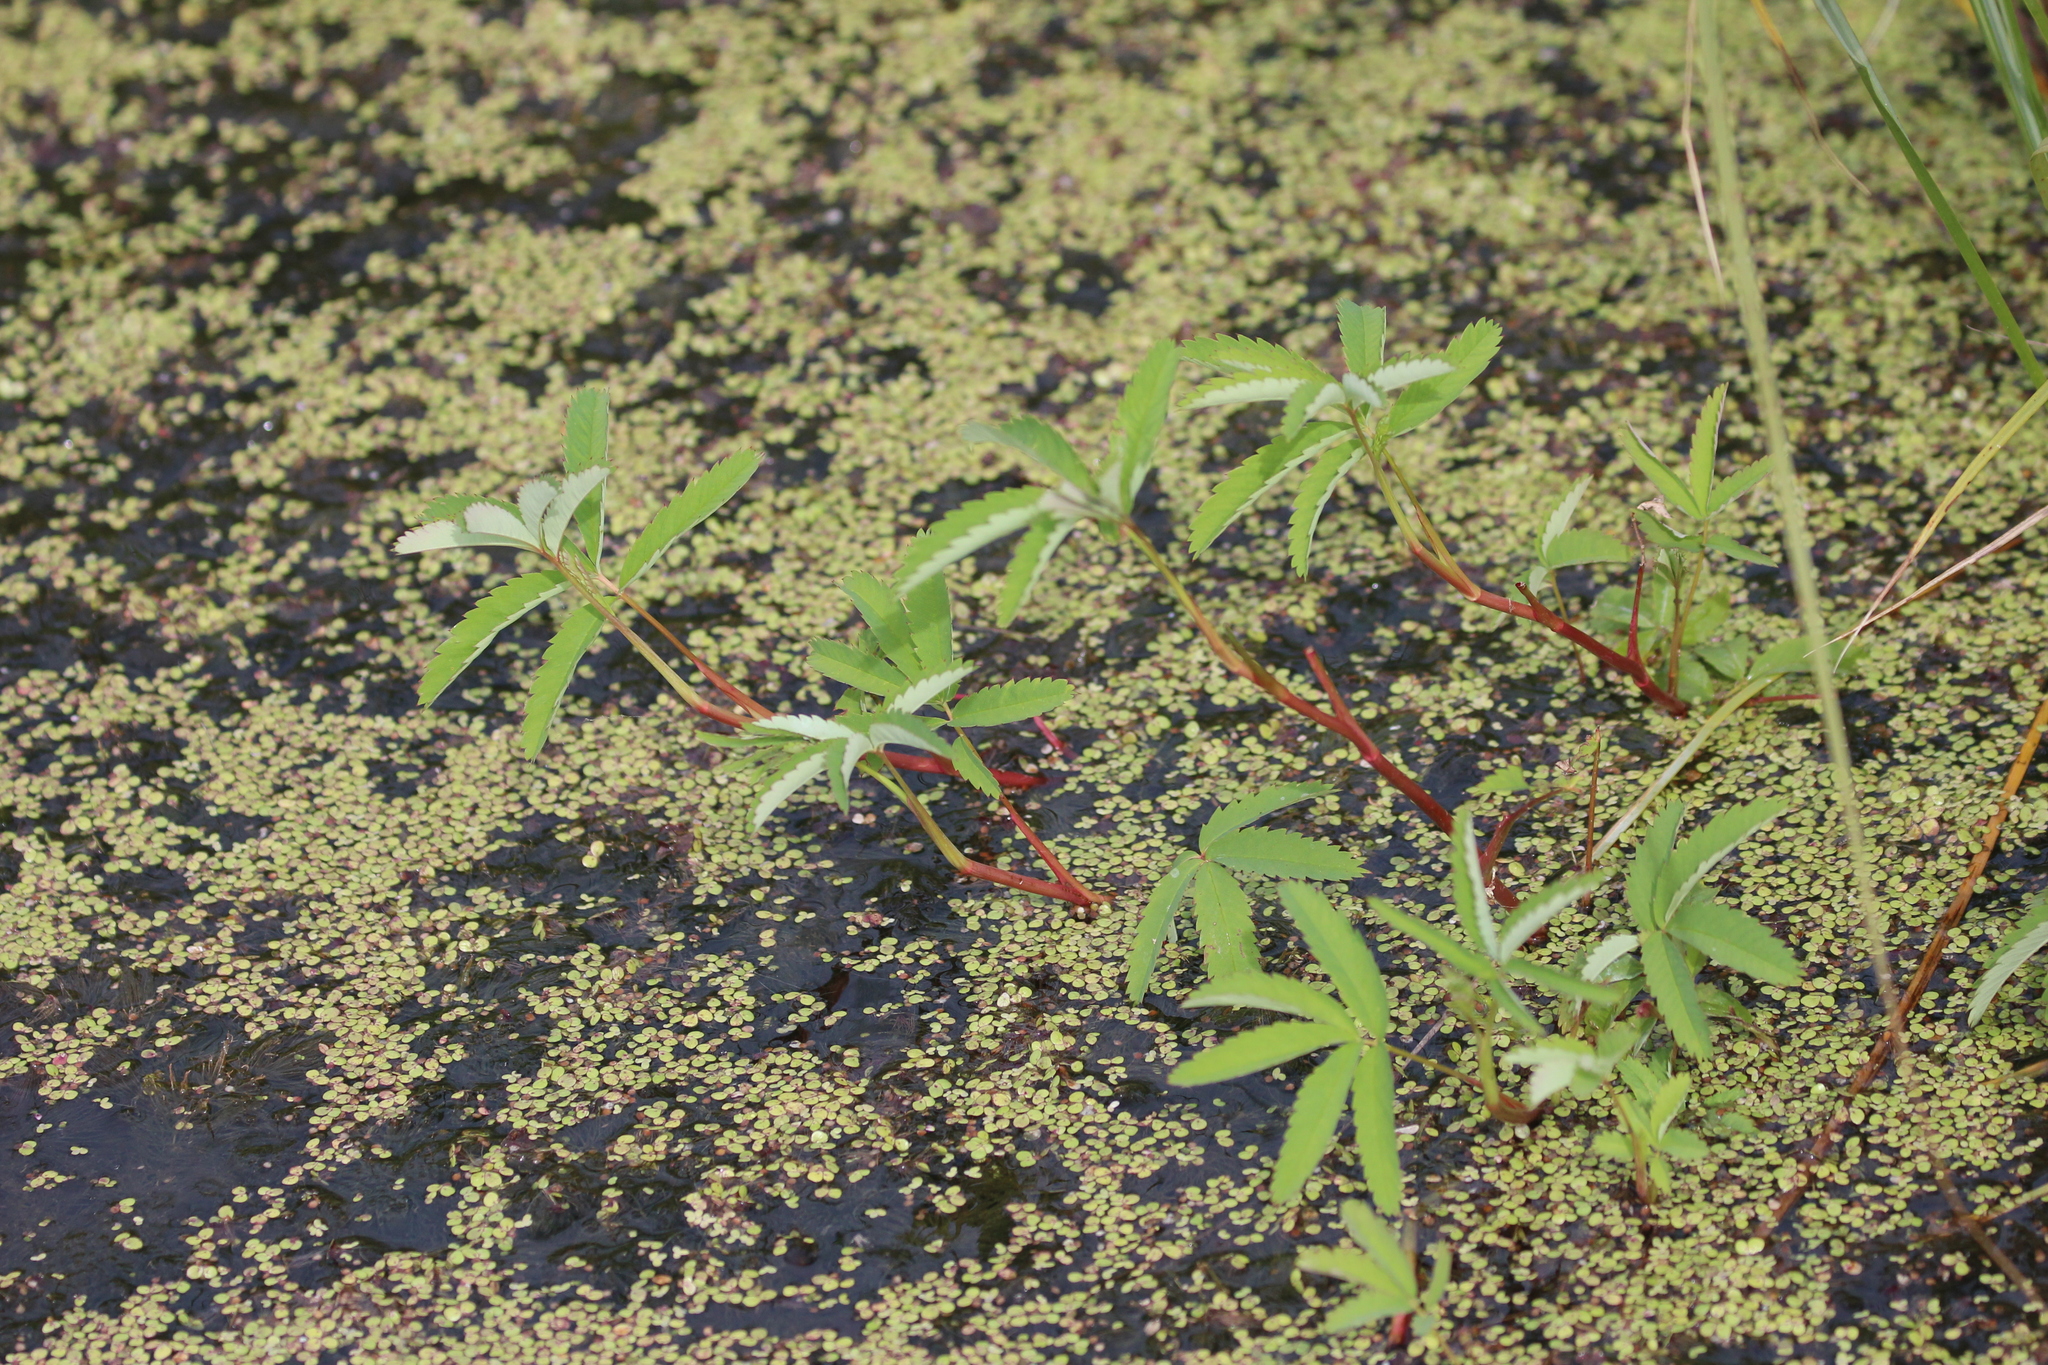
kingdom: Plantae
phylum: Tracheophyta
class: Magnoliopsida
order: Rosales
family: Rosaceae
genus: Comarum
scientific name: Comarum palustre
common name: Marsh cinquefoil
